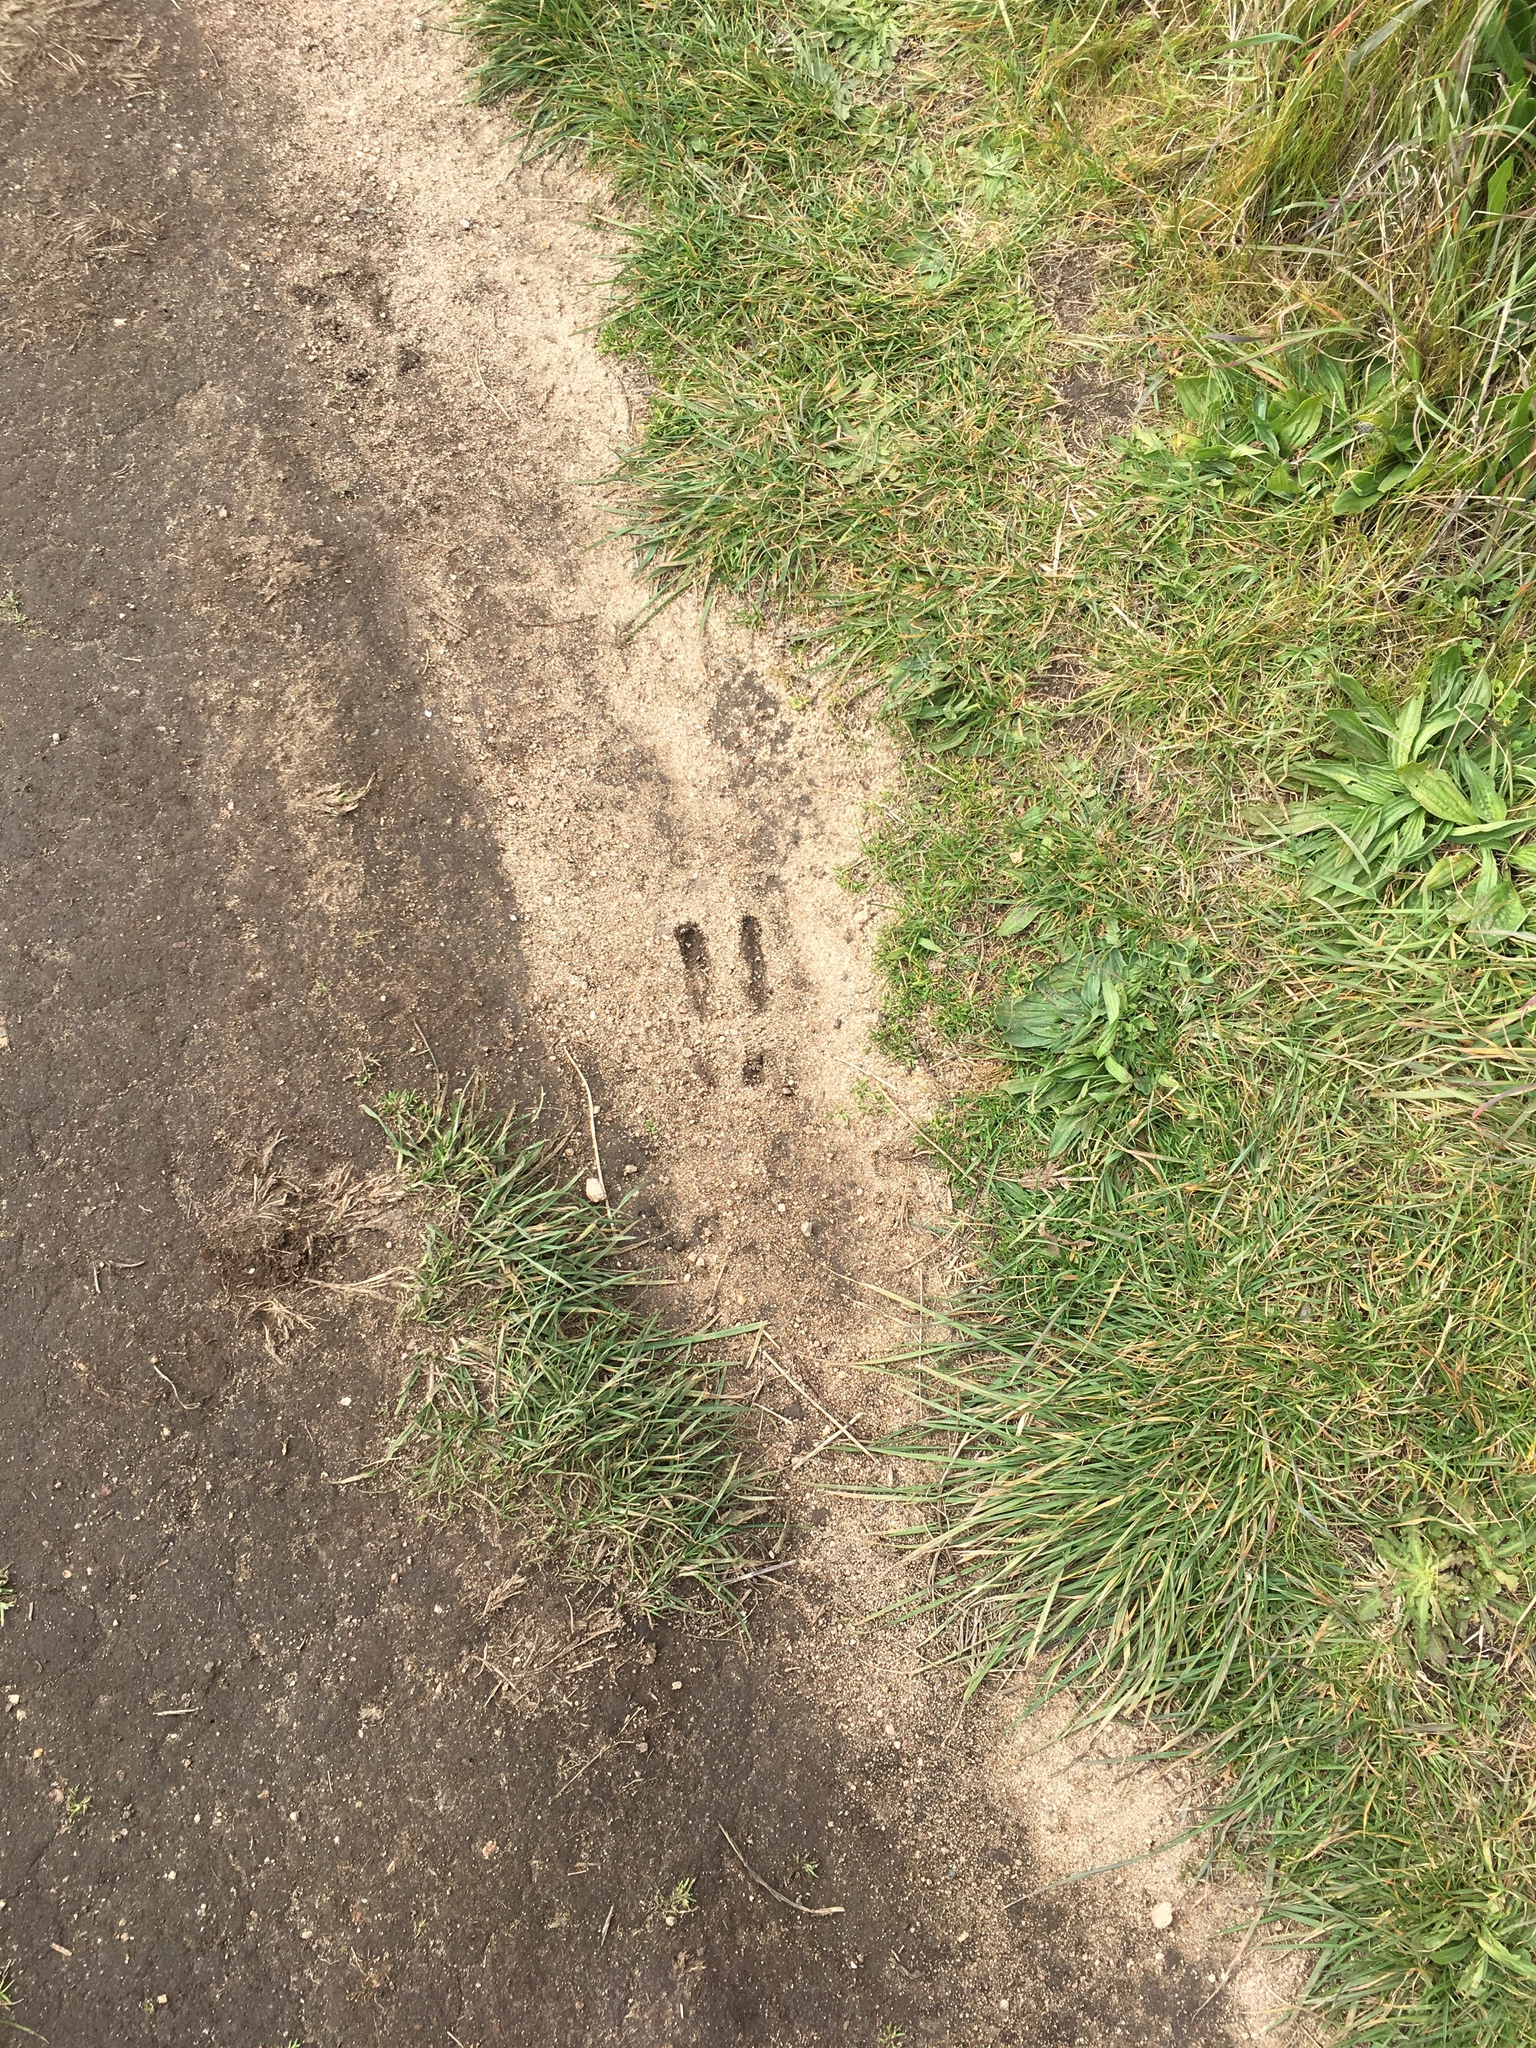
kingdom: Animalia
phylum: Chordata
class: Mammalia
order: Artiodactyla
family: Cervidae
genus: Odocoileus
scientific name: Odocoileus hemionus
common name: Mule deer
